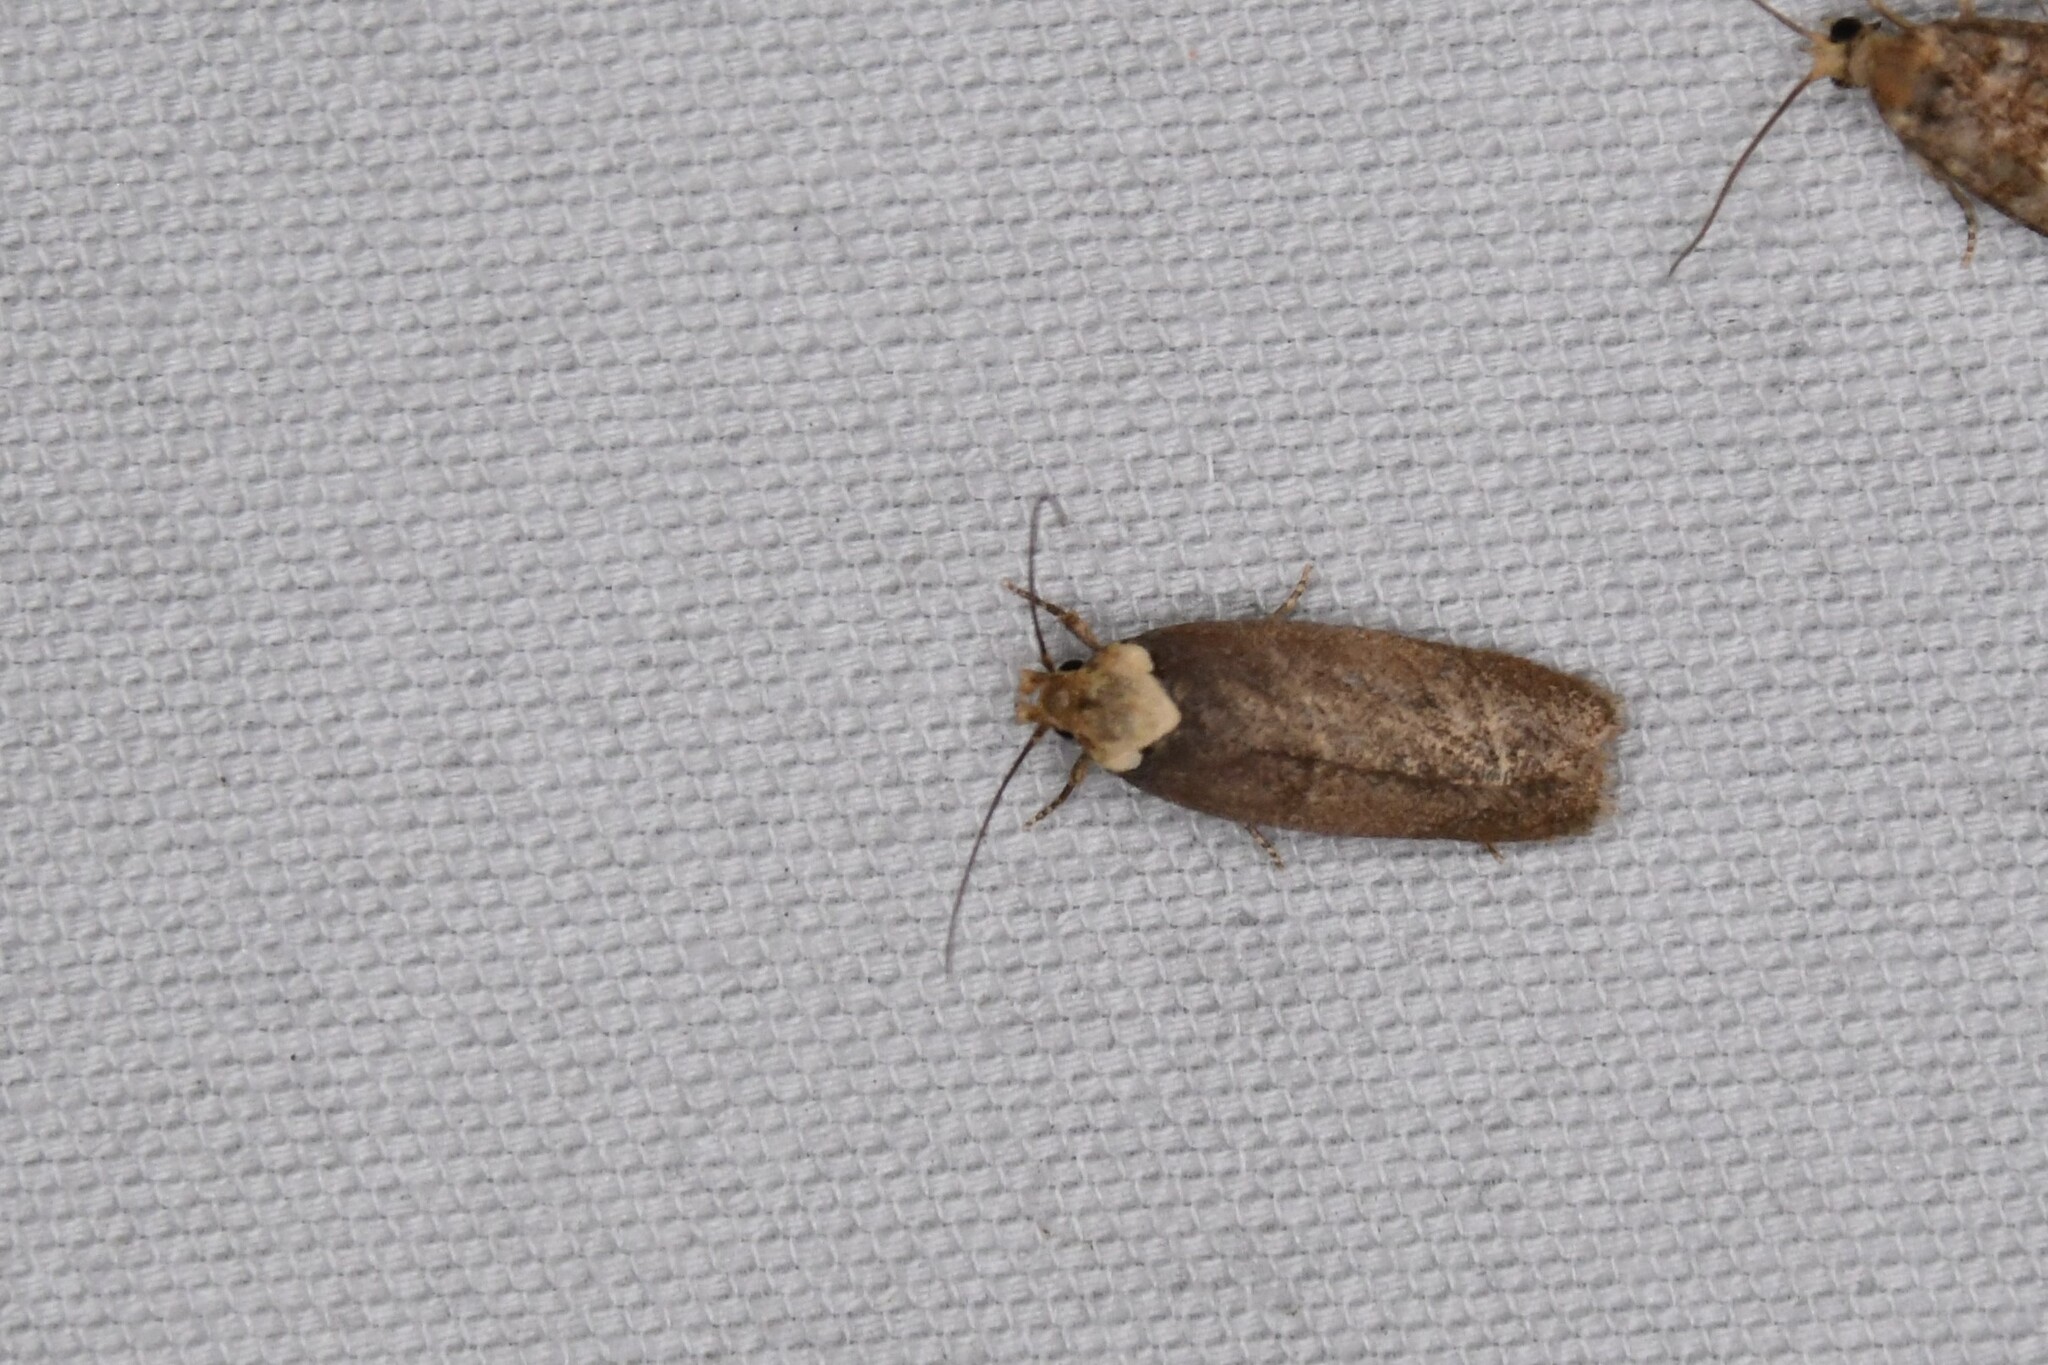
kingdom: Animalia
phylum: Arthropoda
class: Insecta
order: Lepidoptera
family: Depressariidae
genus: Depressaria
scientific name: Depressaria depressana
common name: Lost flat-body
